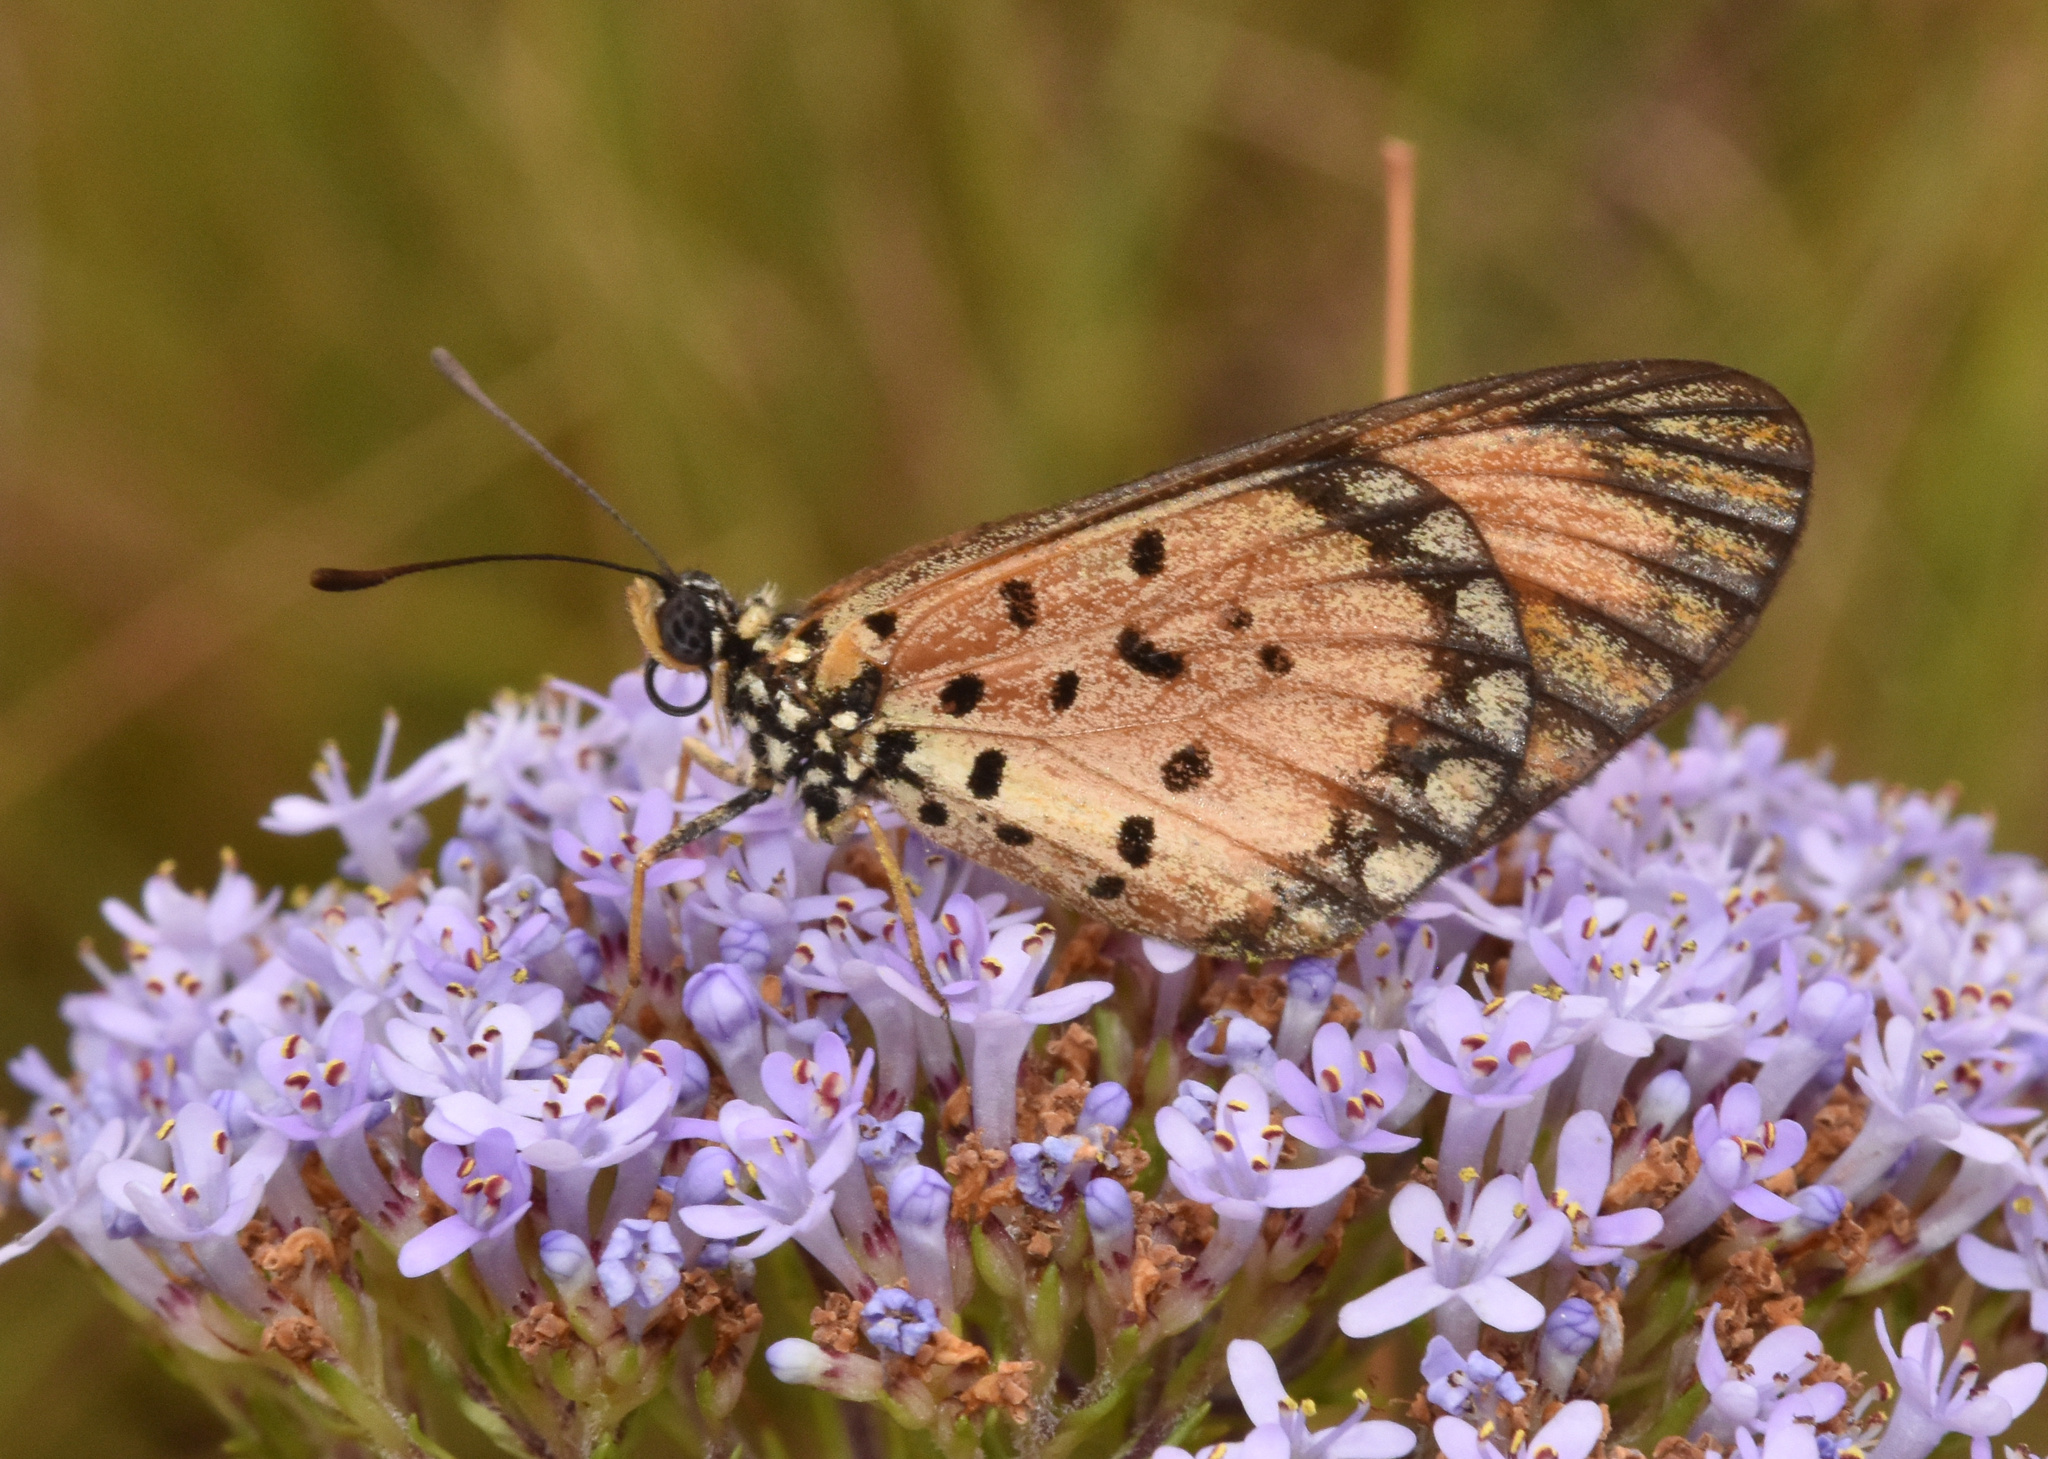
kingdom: Animalia
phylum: Arthropoda
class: Insecta
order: Lepidoptera
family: Nymphalidae
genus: Acraea
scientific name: Acraea Telchinia serena
